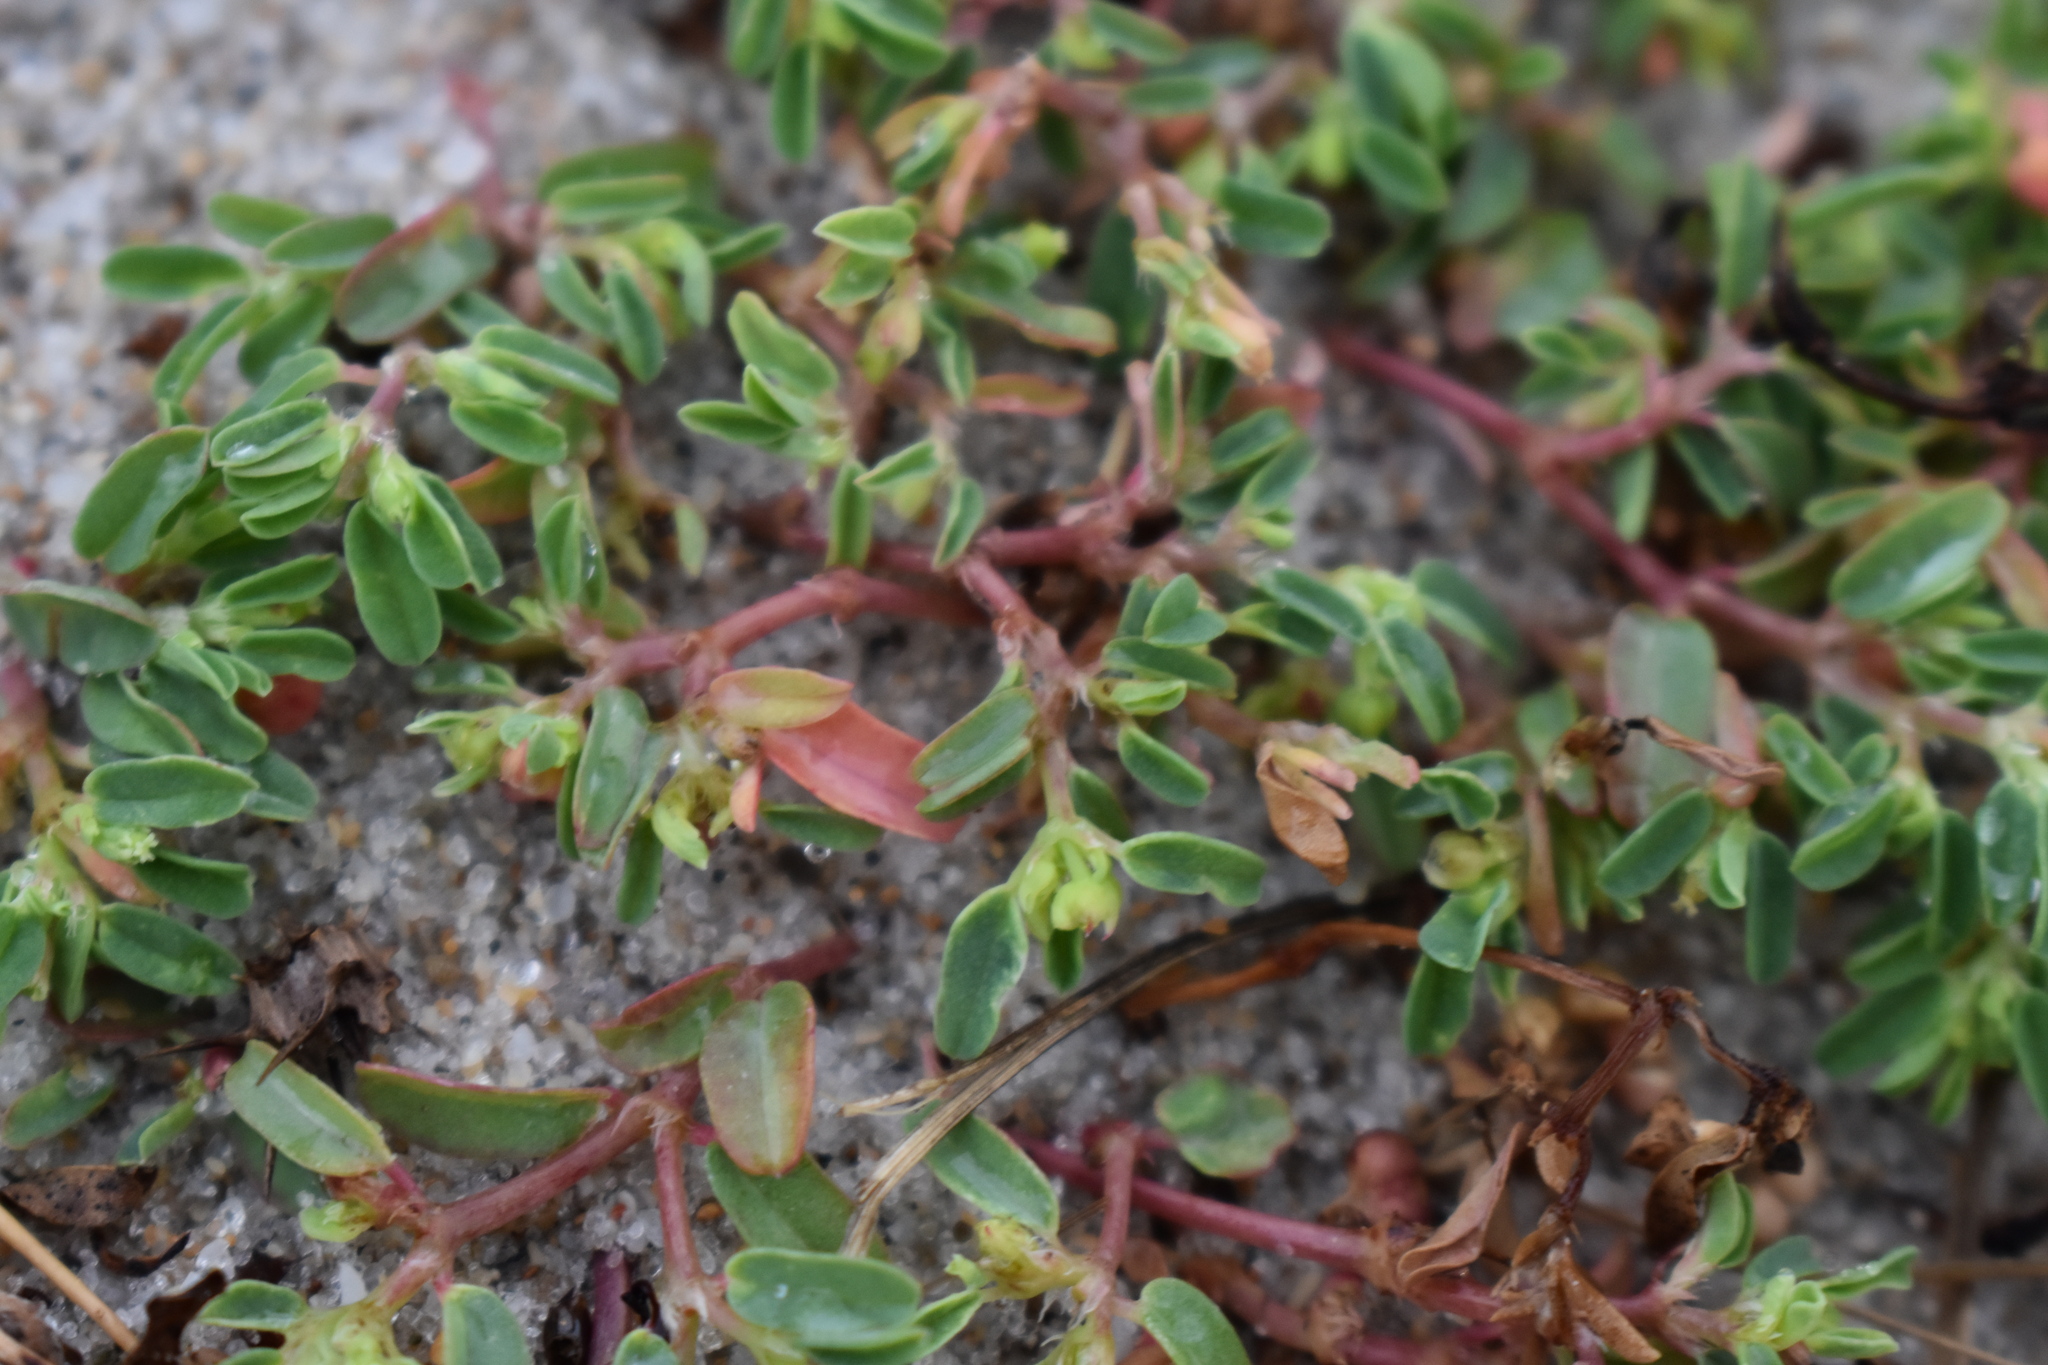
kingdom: Plantae
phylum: Tracheophyta
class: Magnoliopsida
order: Malpighiales
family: Euphorbiaceae
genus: Euphorbia
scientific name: Euphorbia bombensis
